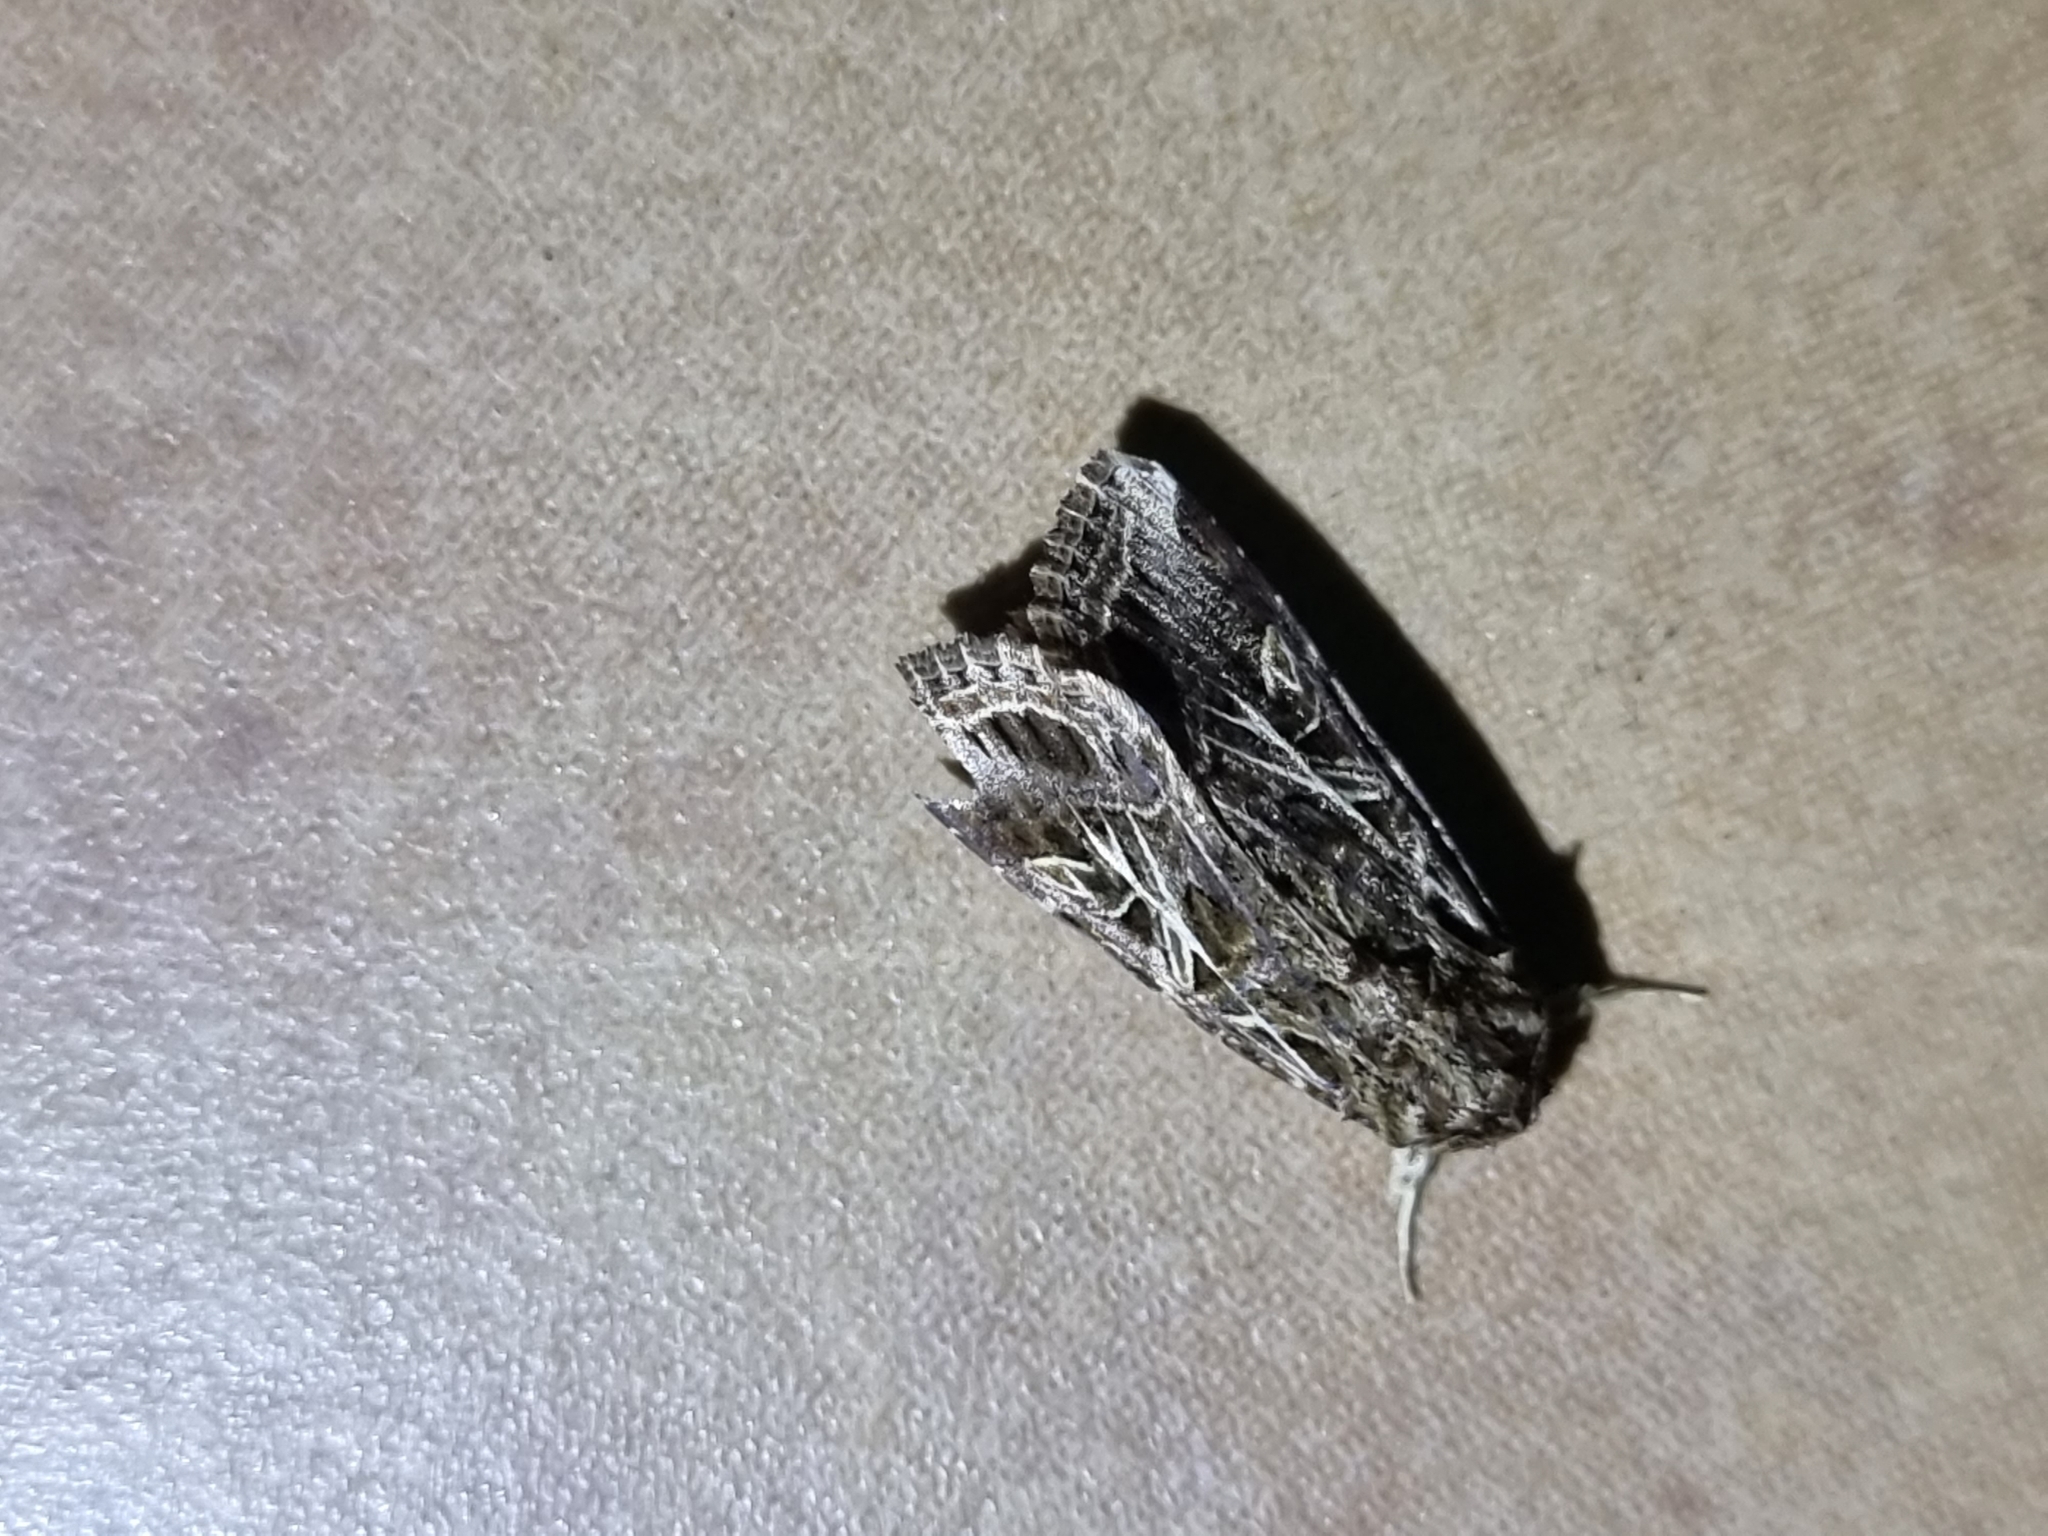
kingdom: Animalia
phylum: Arthropoda
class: Insecta
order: Lepidoptera
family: Noctuidae
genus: Spodoptera
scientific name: Spodoptera litura
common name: Asian cotton leafworm
